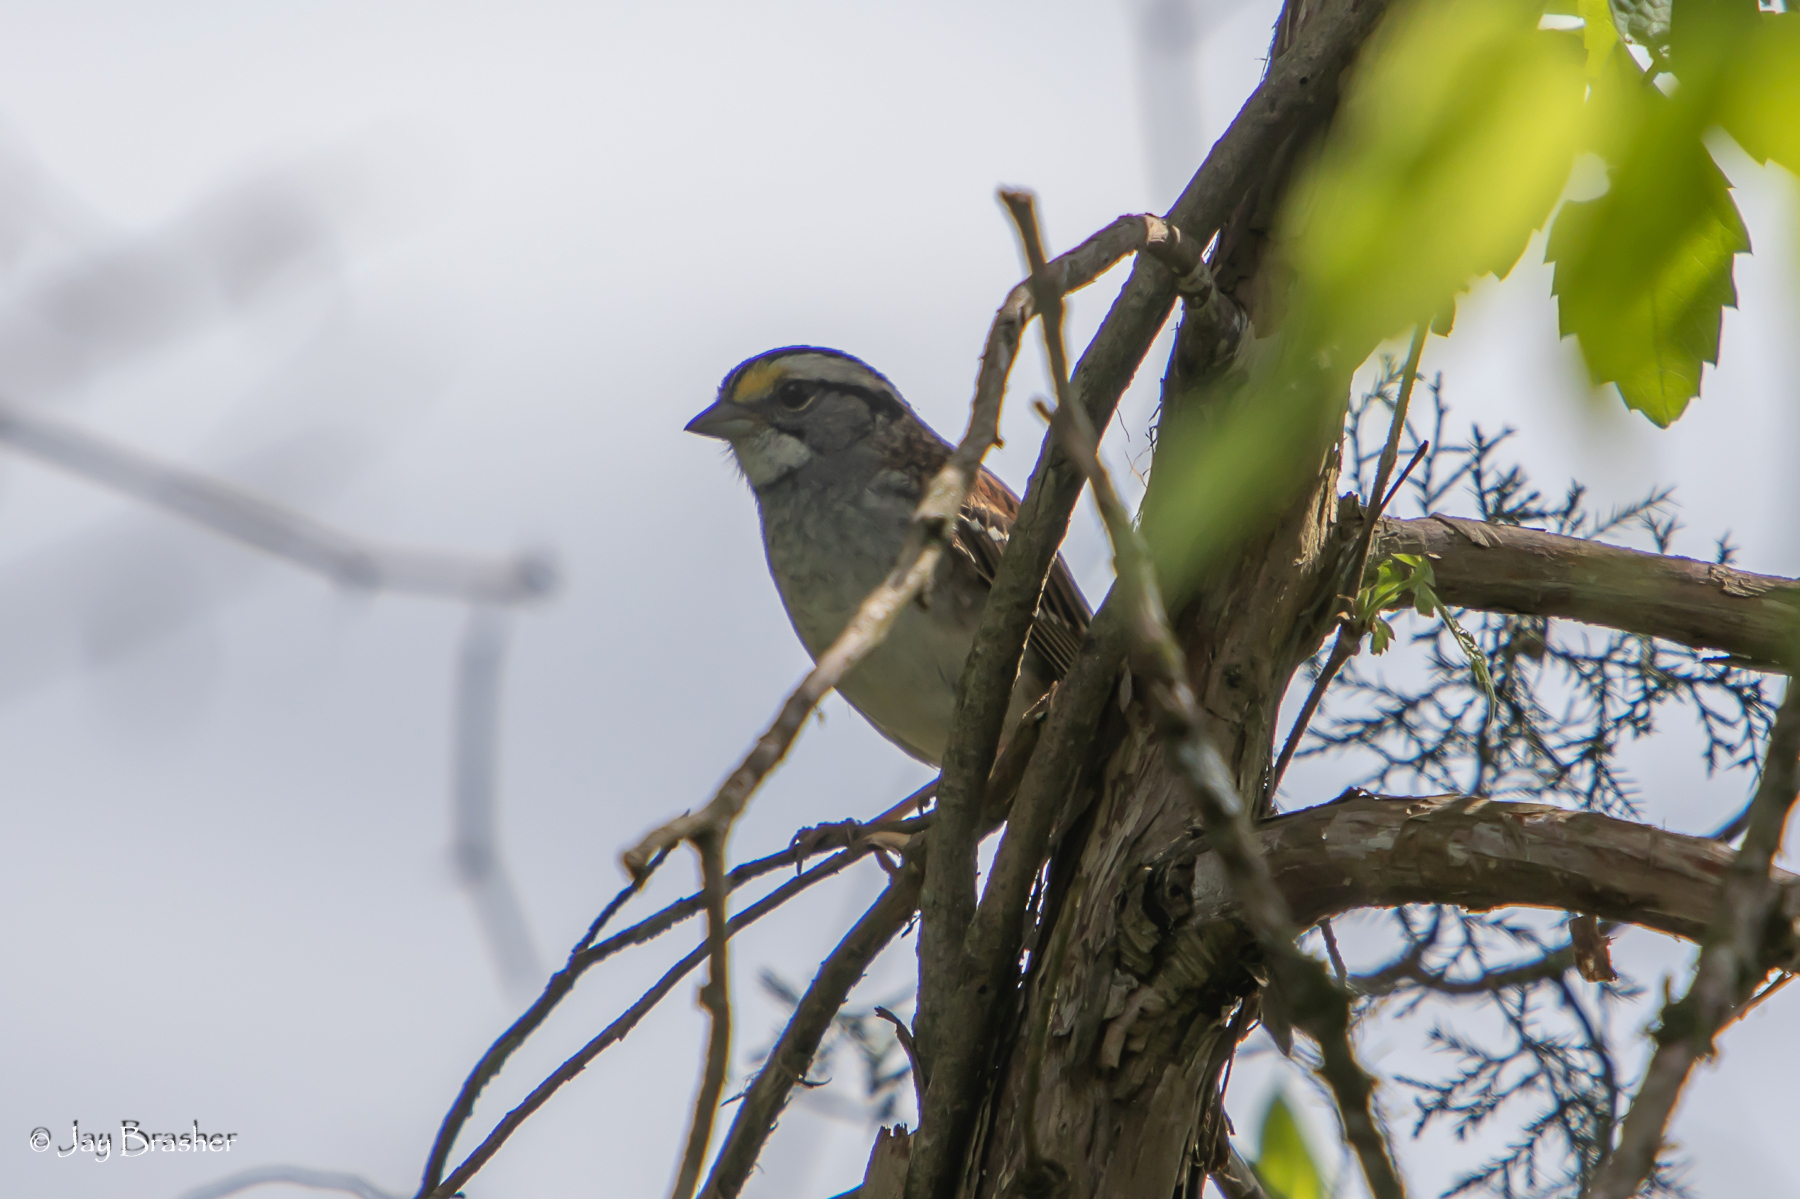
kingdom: Animalia
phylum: Chordata
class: Aves
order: Passeriformes
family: Passerellidae
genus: Zonotrichia
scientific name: Zonotrichia albicollis
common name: White-throated sparrow
